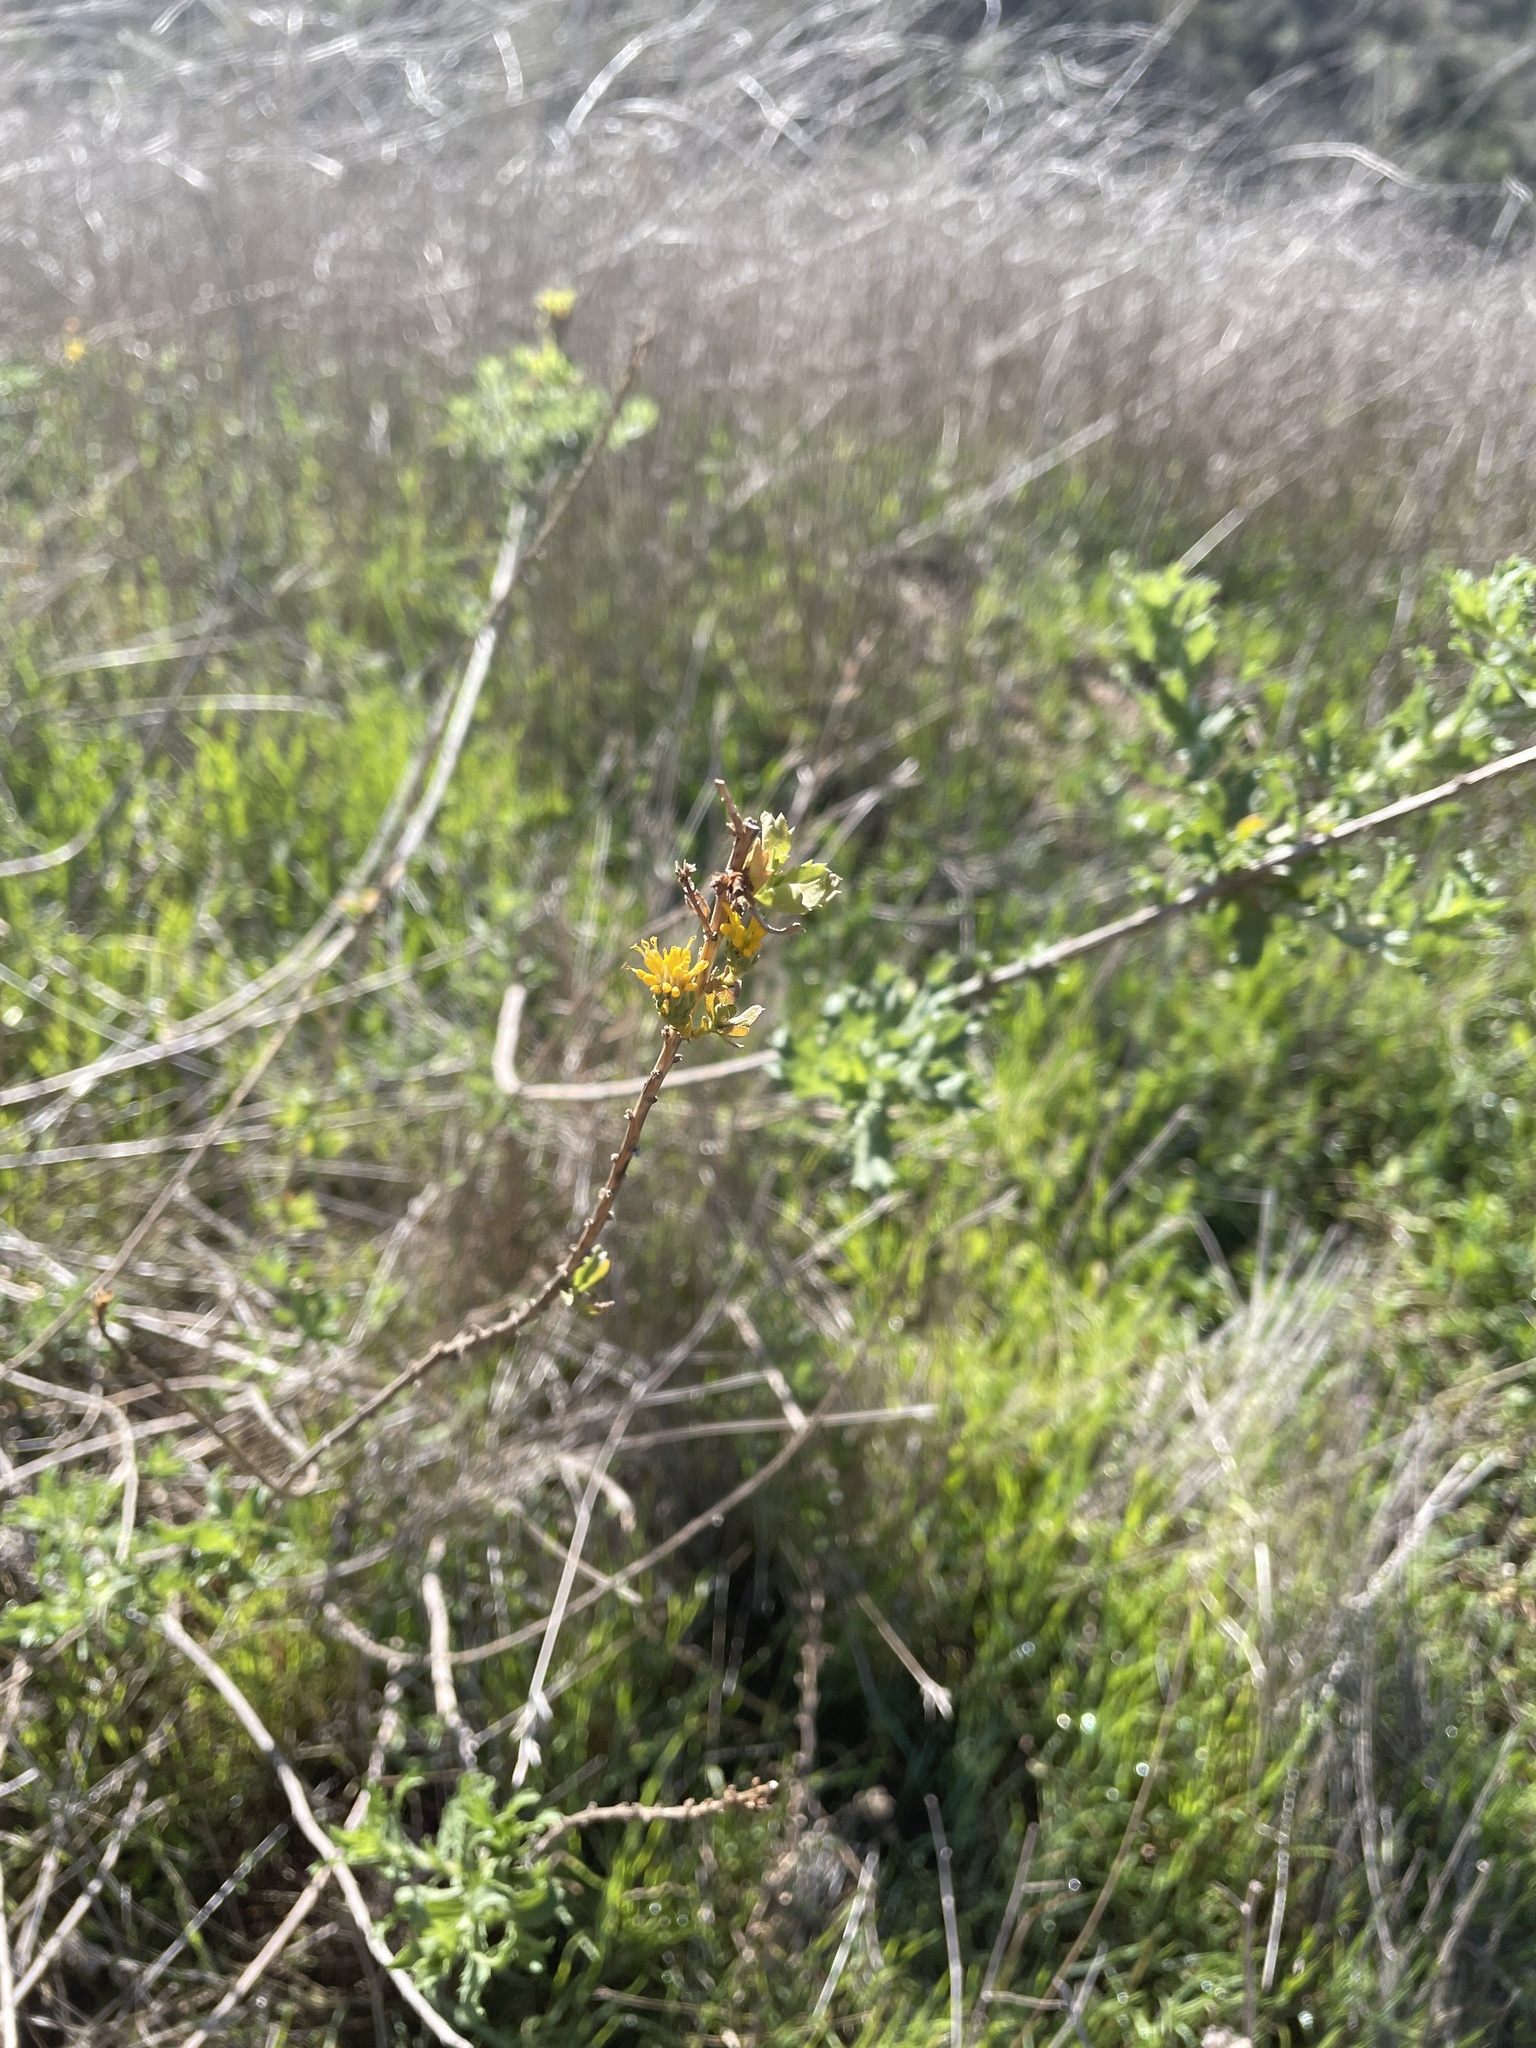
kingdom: Plantae
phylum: Tracheophyta
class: Magnoliopsida
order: Asterales
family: Asteraceae
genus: Isocoma
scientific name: Isocoma menziesii
